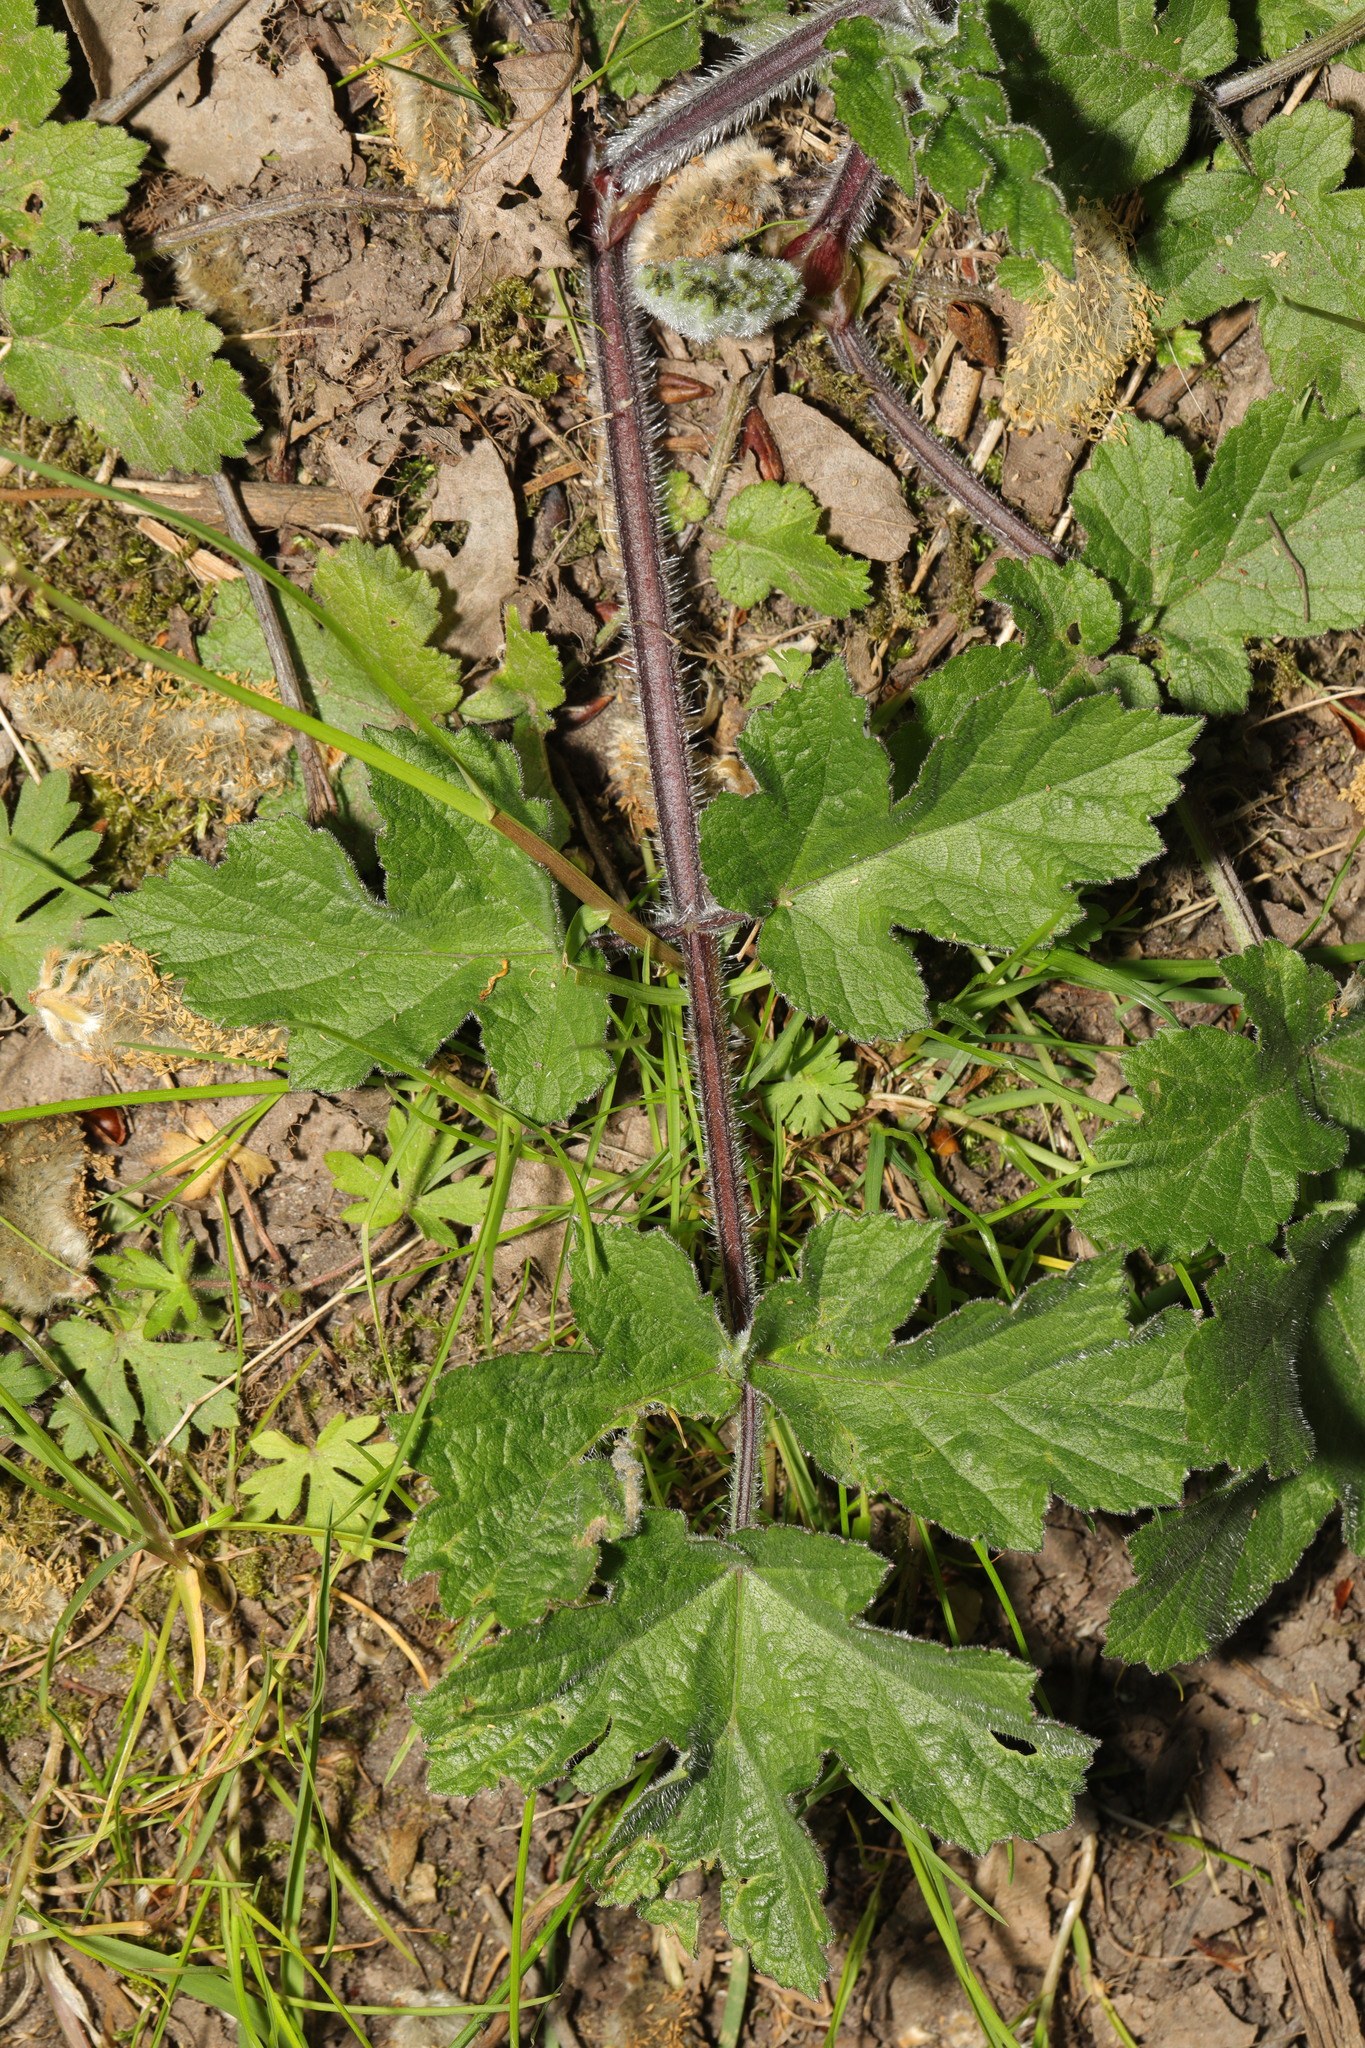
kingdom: Plantae
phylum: Tracheophyta
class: Magnoliopsida
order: Apiales
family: Apiaceae
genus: Heracleum
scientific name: Heracleum sphondylium
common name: Hogweed
